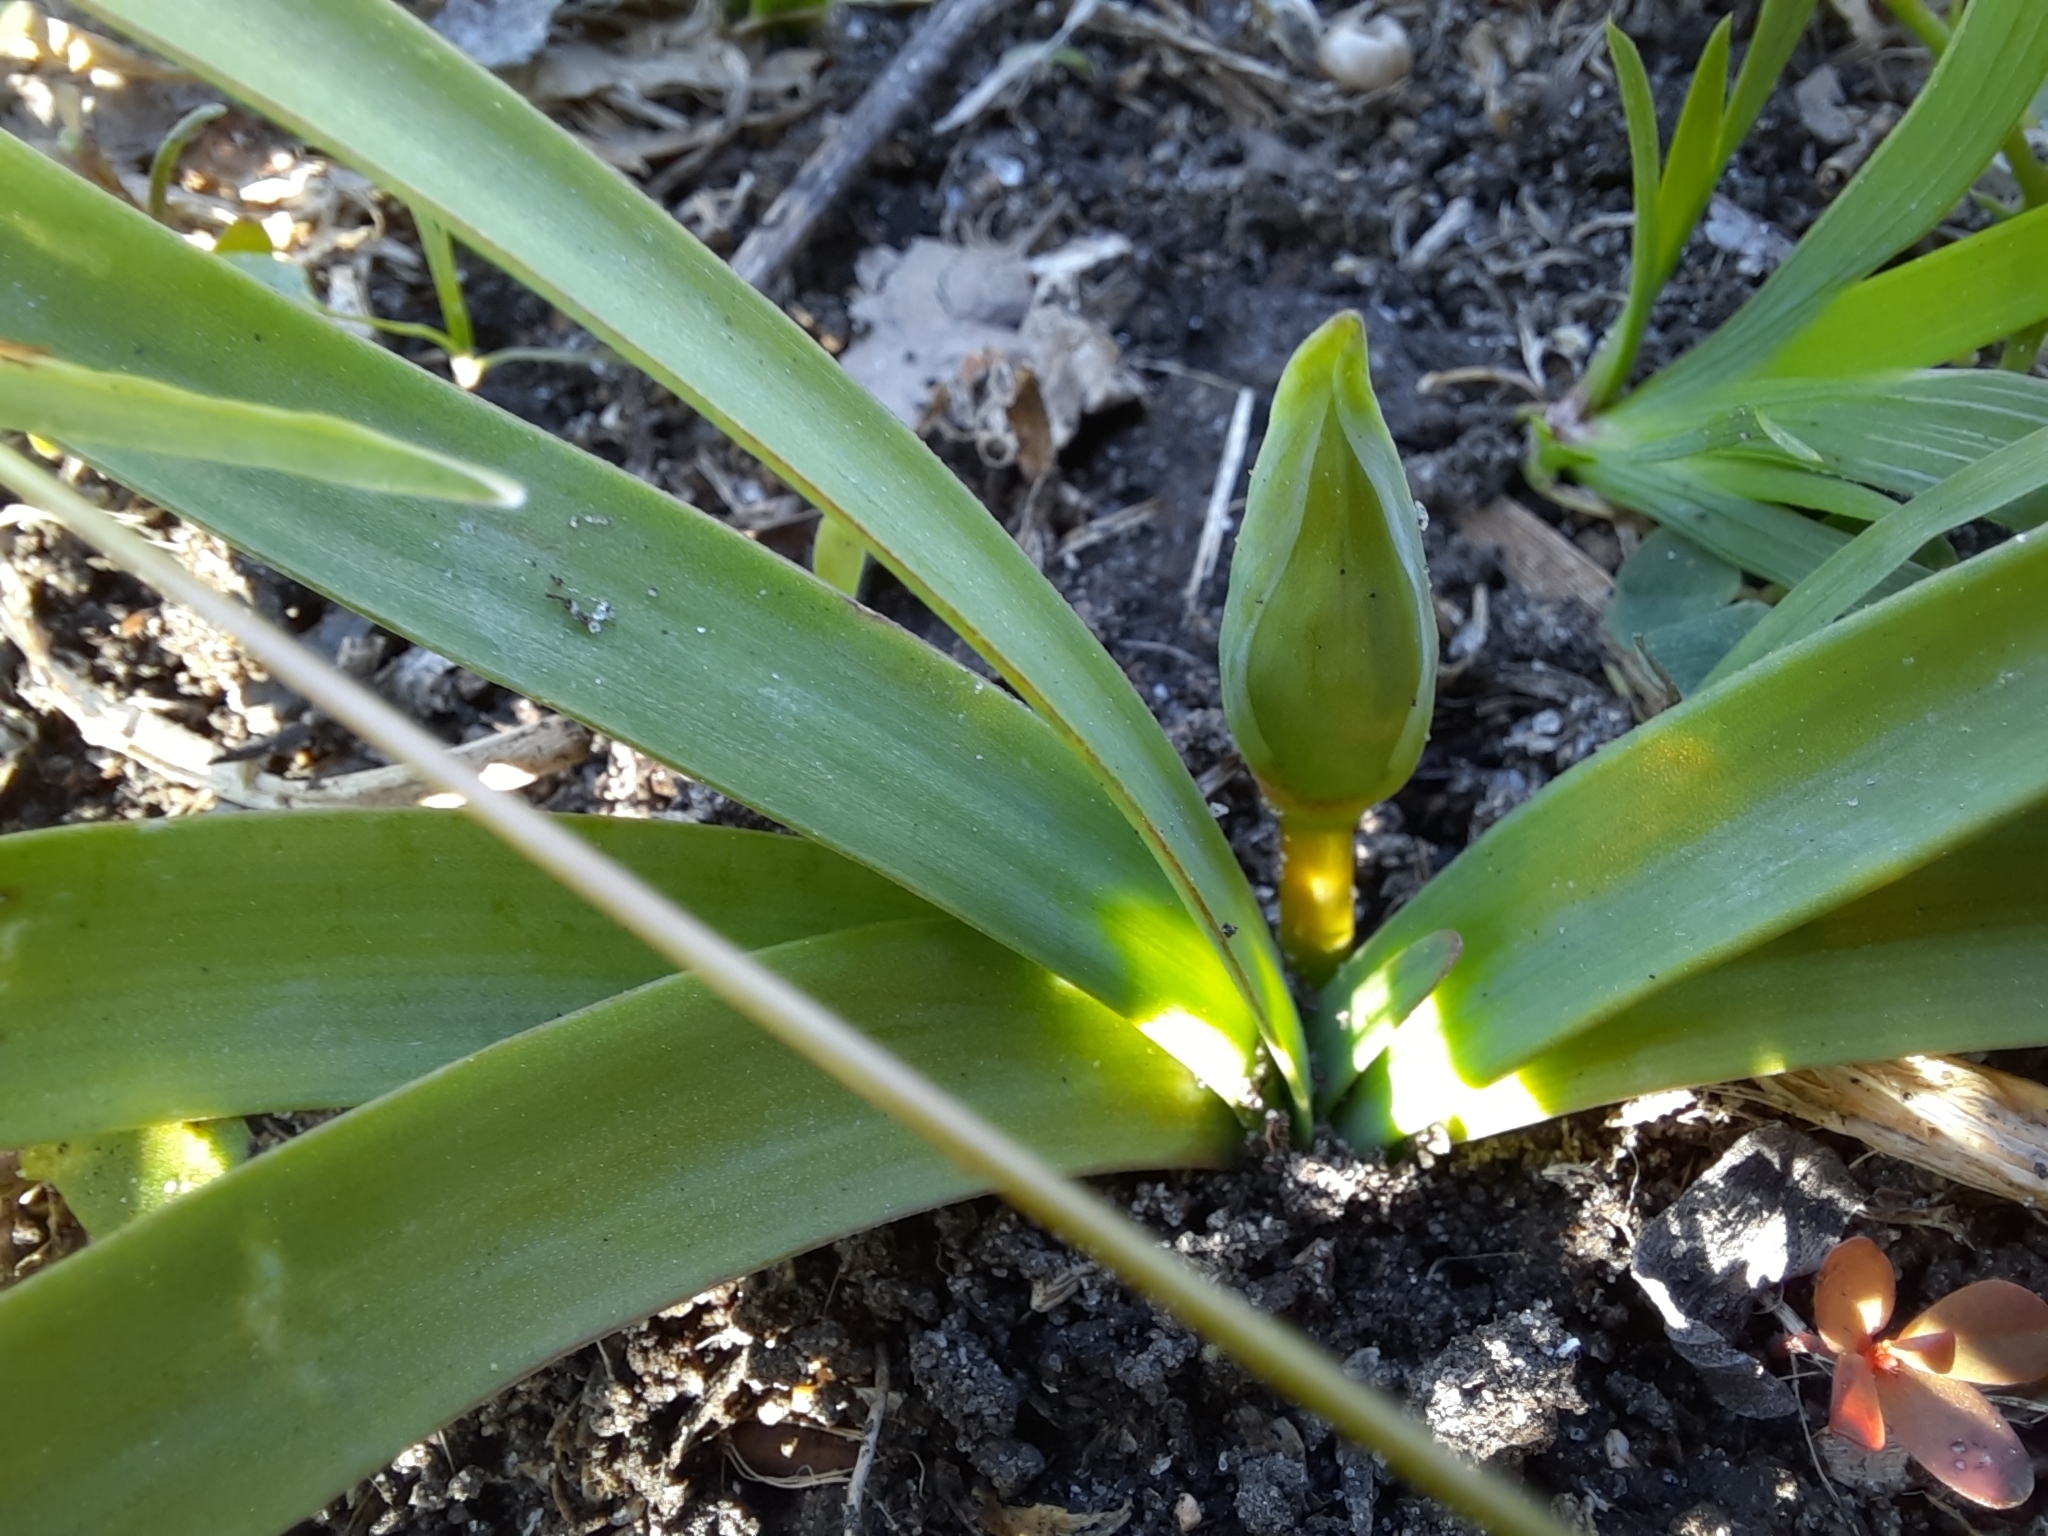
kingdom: Plantae
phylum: Tracheophyta
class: Liliopsida
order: Asparagales
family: Amaryllidaceae
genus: Nothoscordum
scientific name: Nothoscordum bivalve
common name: Crow-poison
